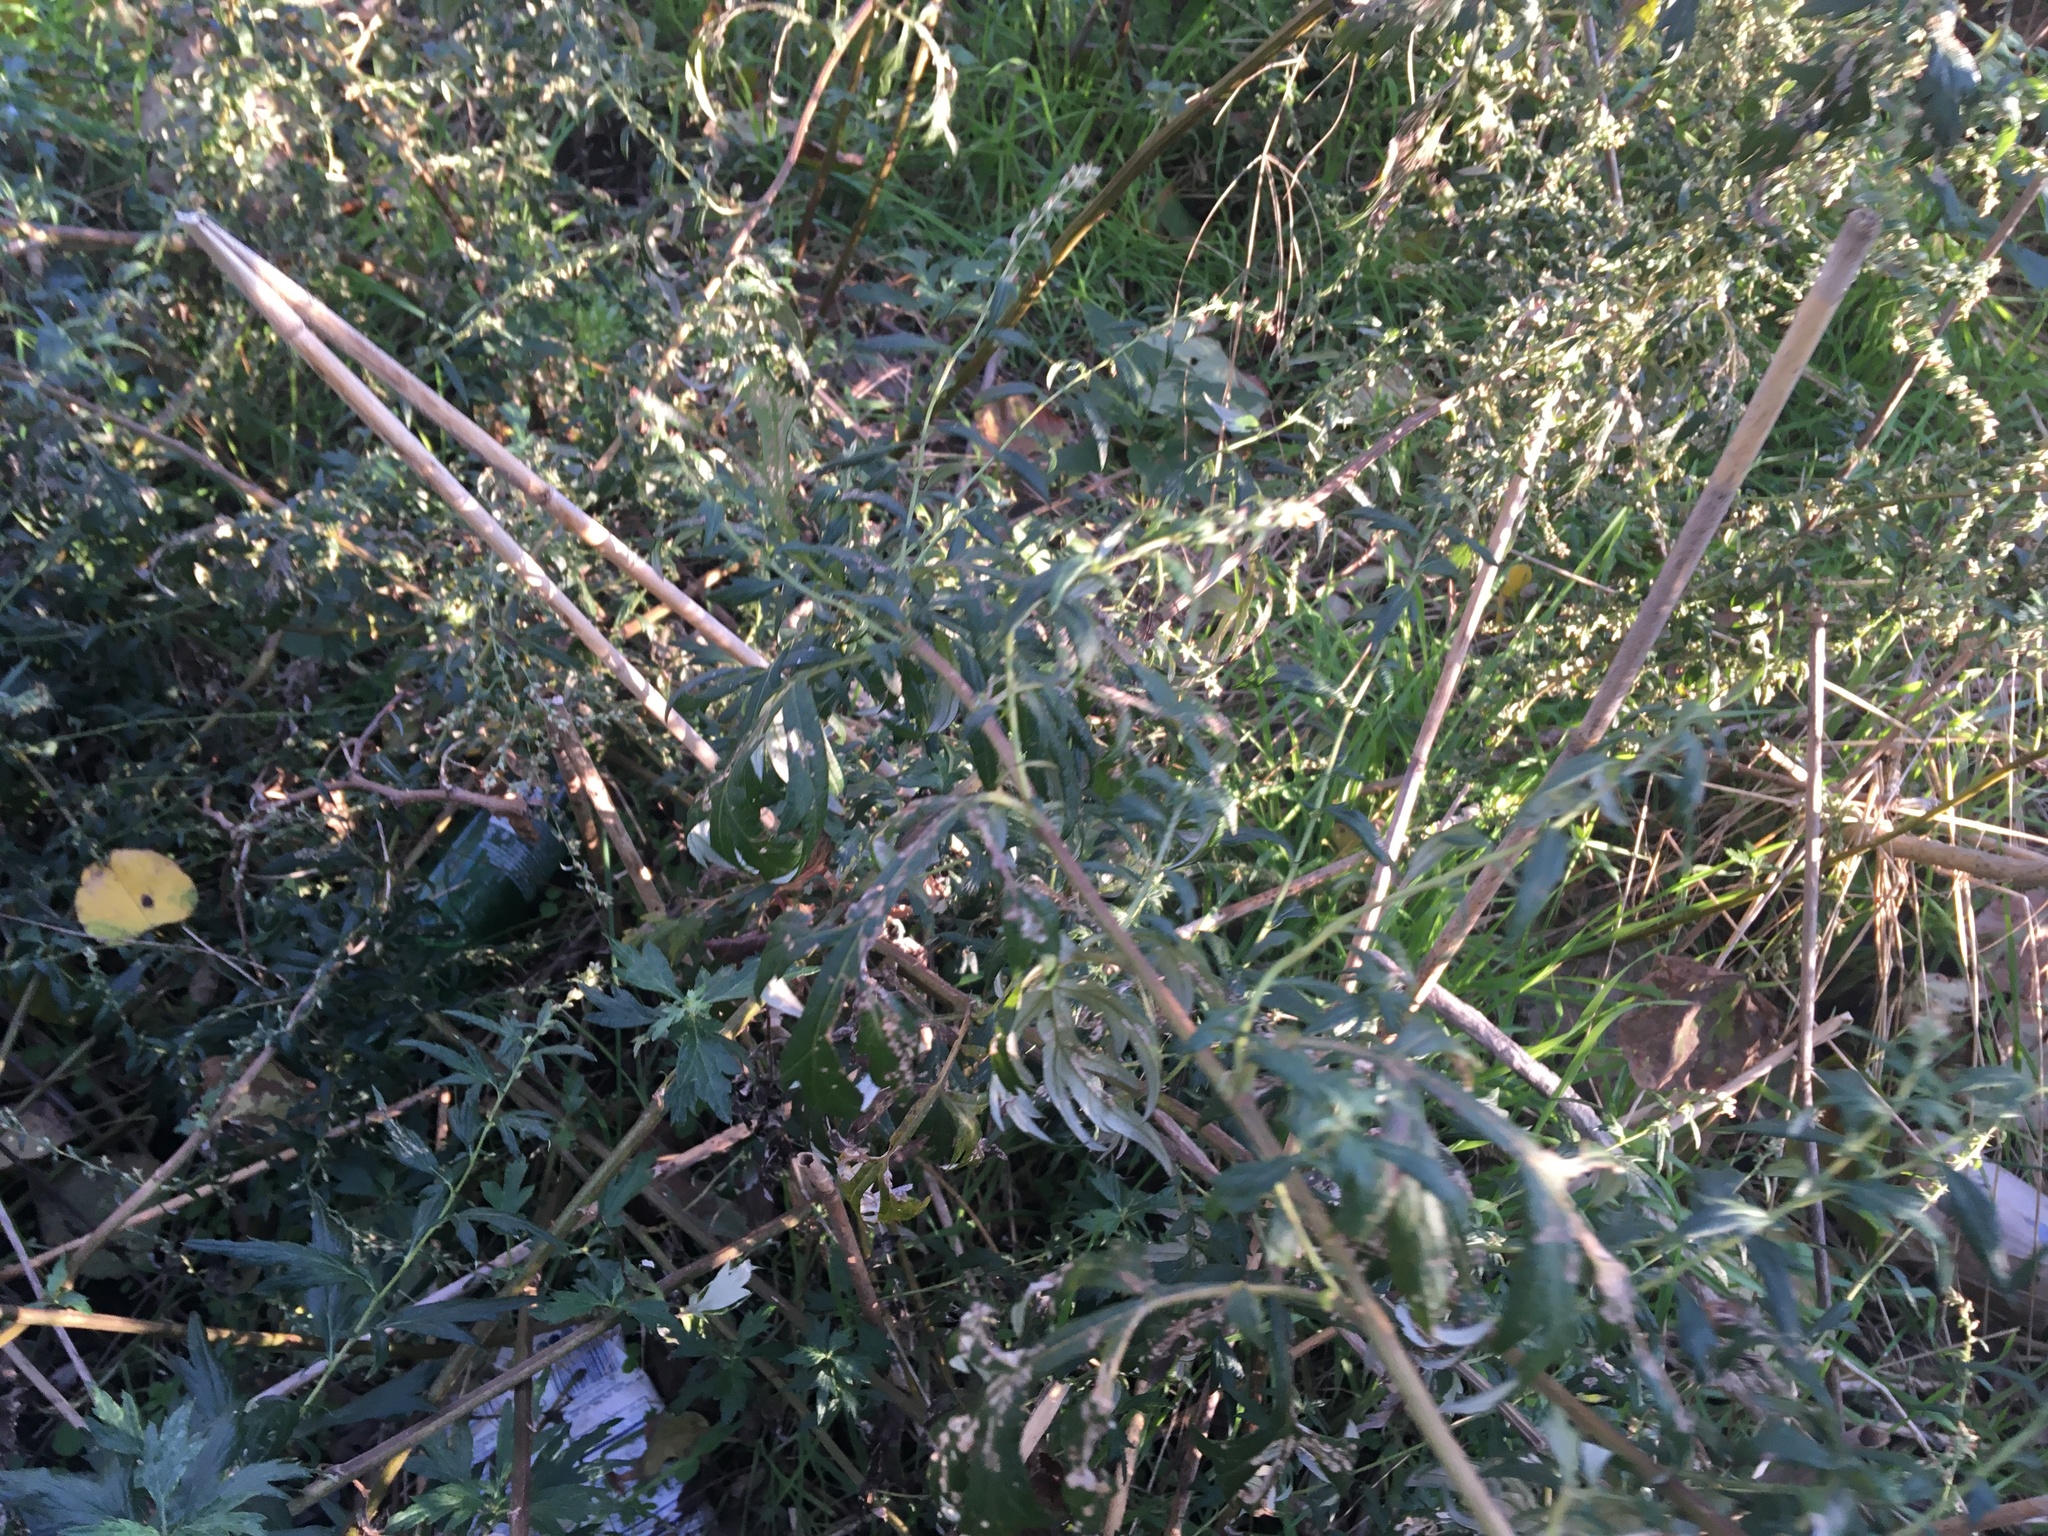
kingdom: Plantae
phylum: Tracheophyta
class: Magnoliopsida
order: Asterales
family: Asteraceae
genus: Artemisia
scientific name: Artemisia vulgaris
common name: Mugwort
